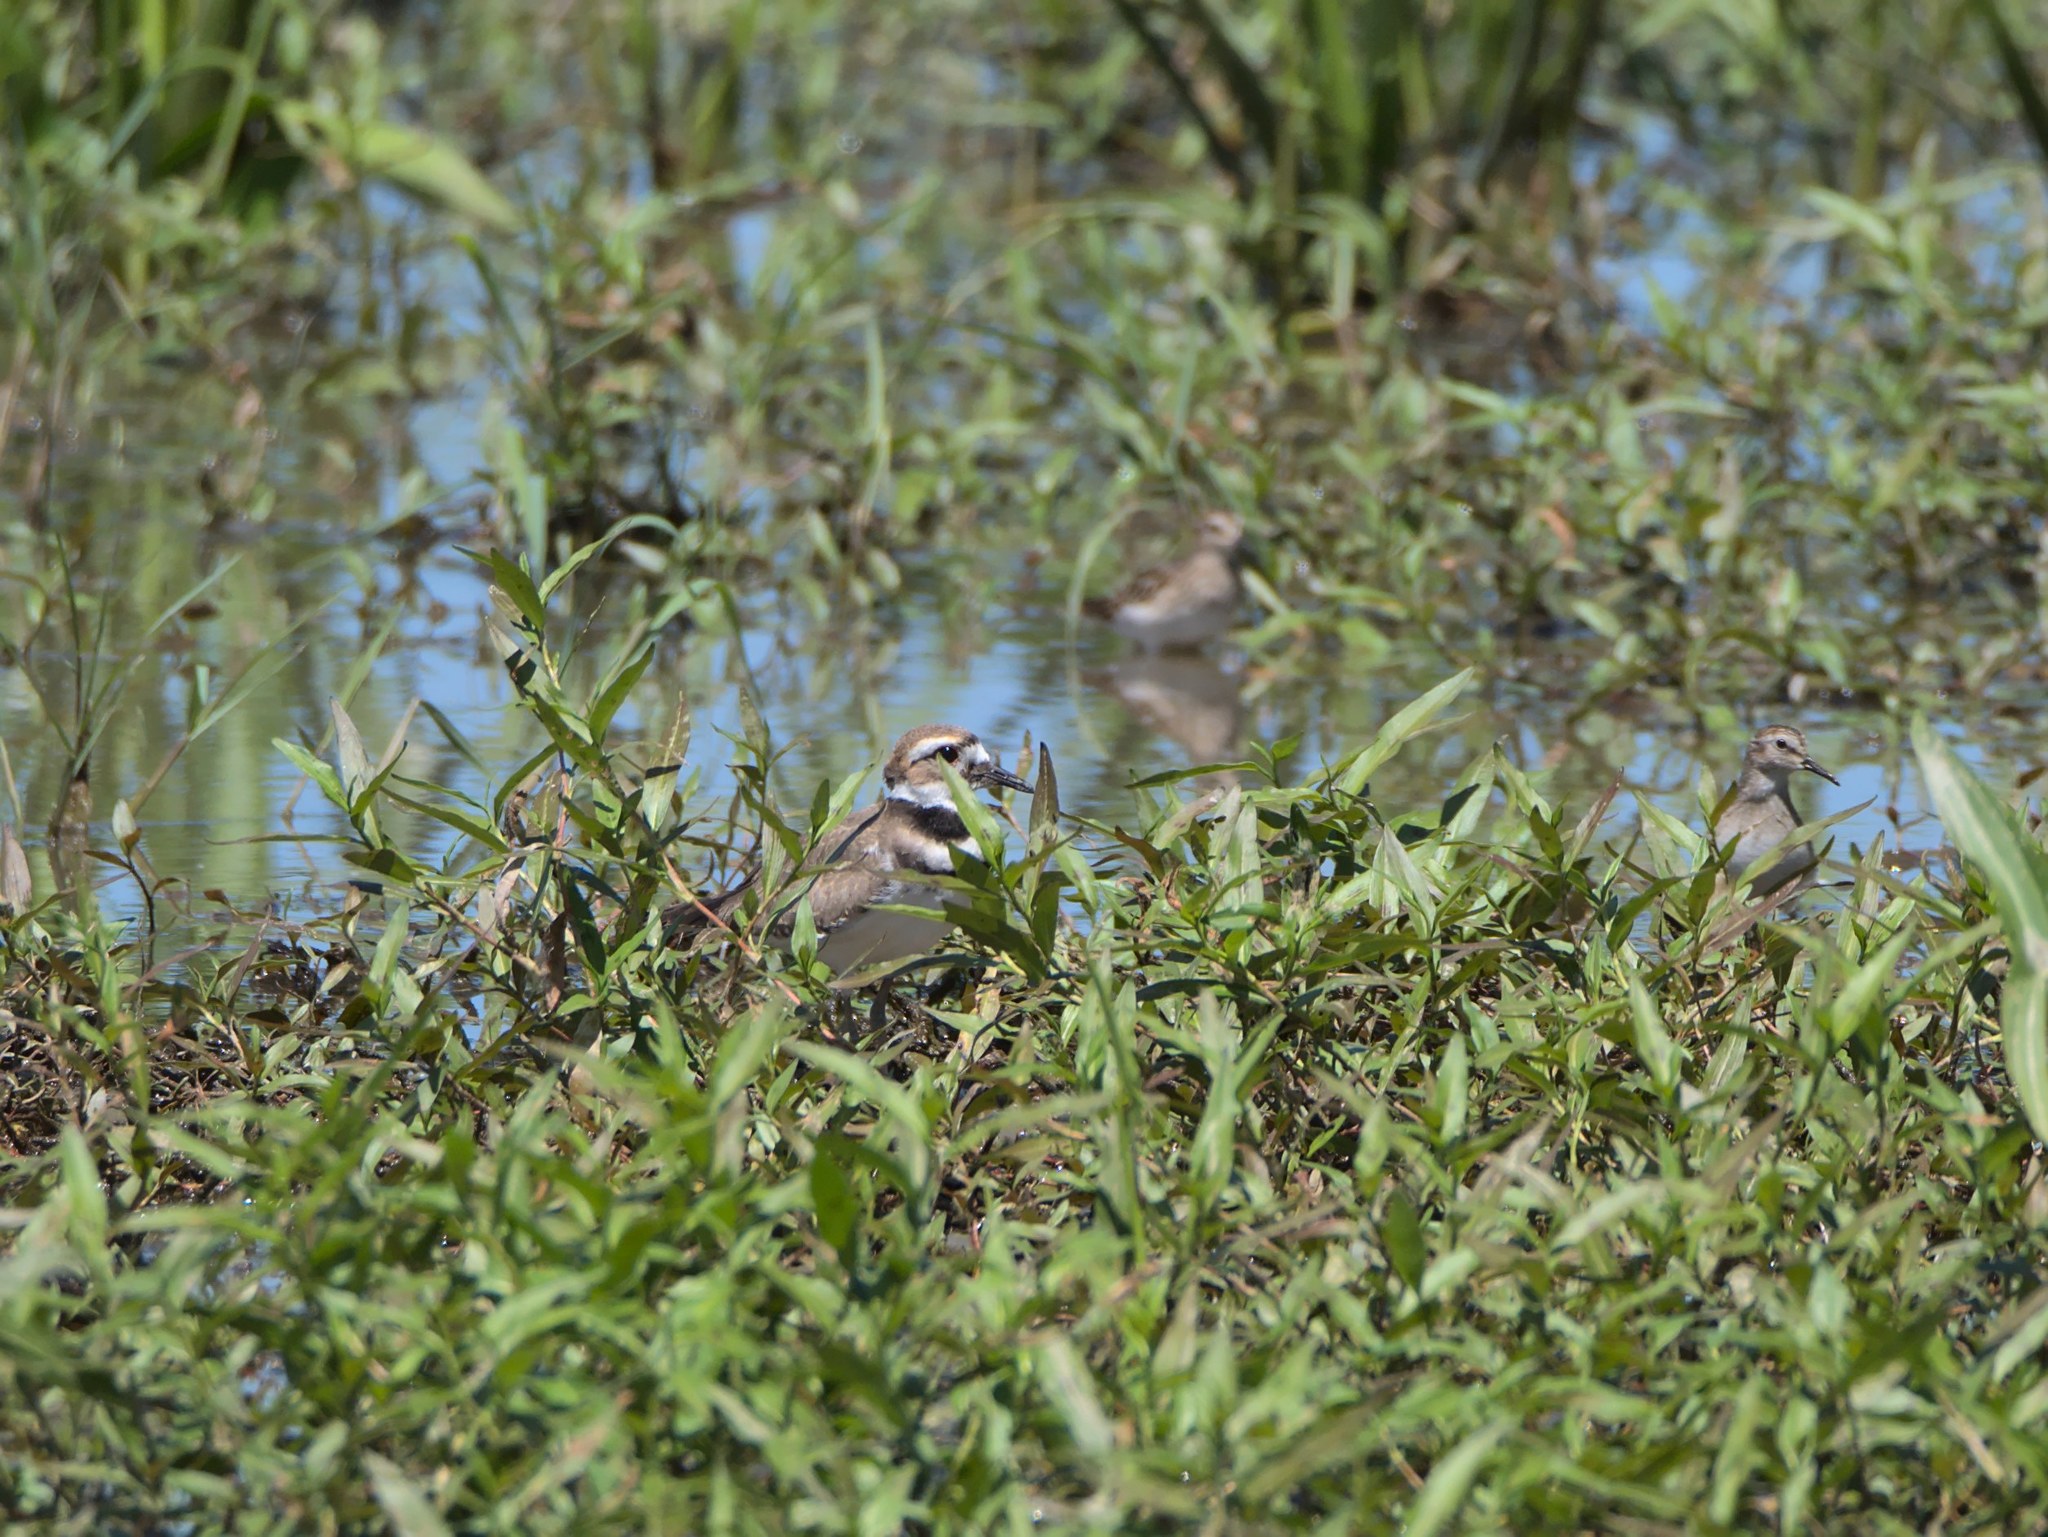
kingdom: Animalia
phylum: Chordata
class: Aves
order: Charadriiformes
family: Charadriidae
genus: Charadrius
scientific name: Charadrius vociferus
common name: Killdeer
